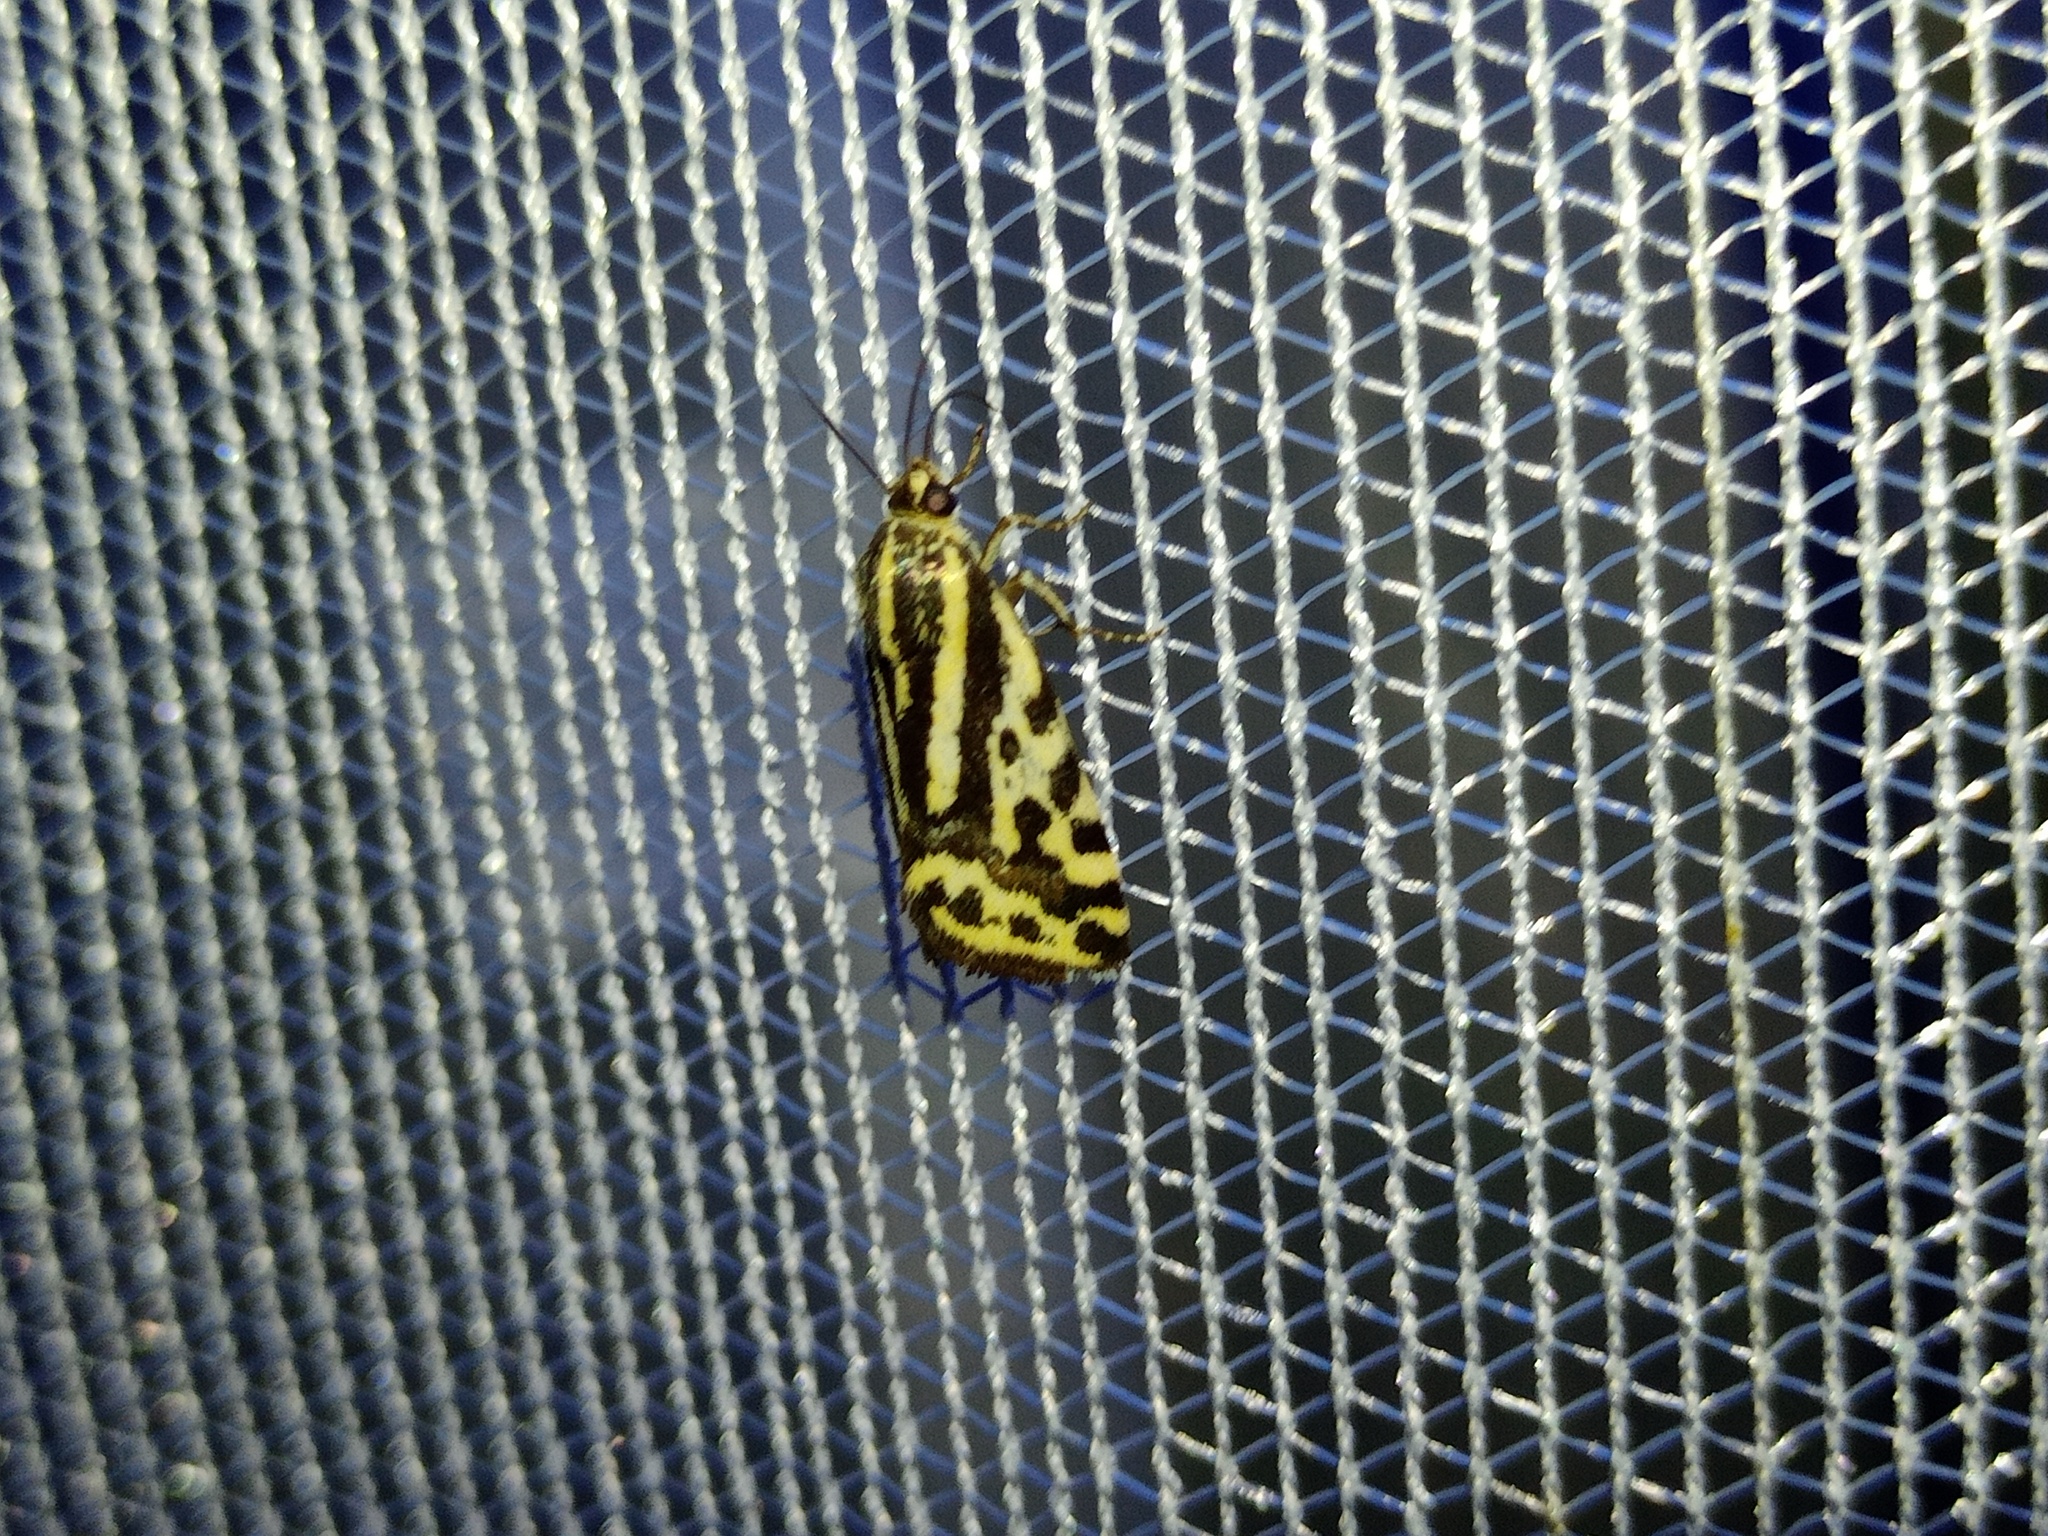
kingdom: Animalia
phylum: Arthropoda
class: Insecta
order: Lepidoptera
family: Noctuidae
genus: Acontia
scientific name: Acontia trabealis
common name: Spotted sulphur
